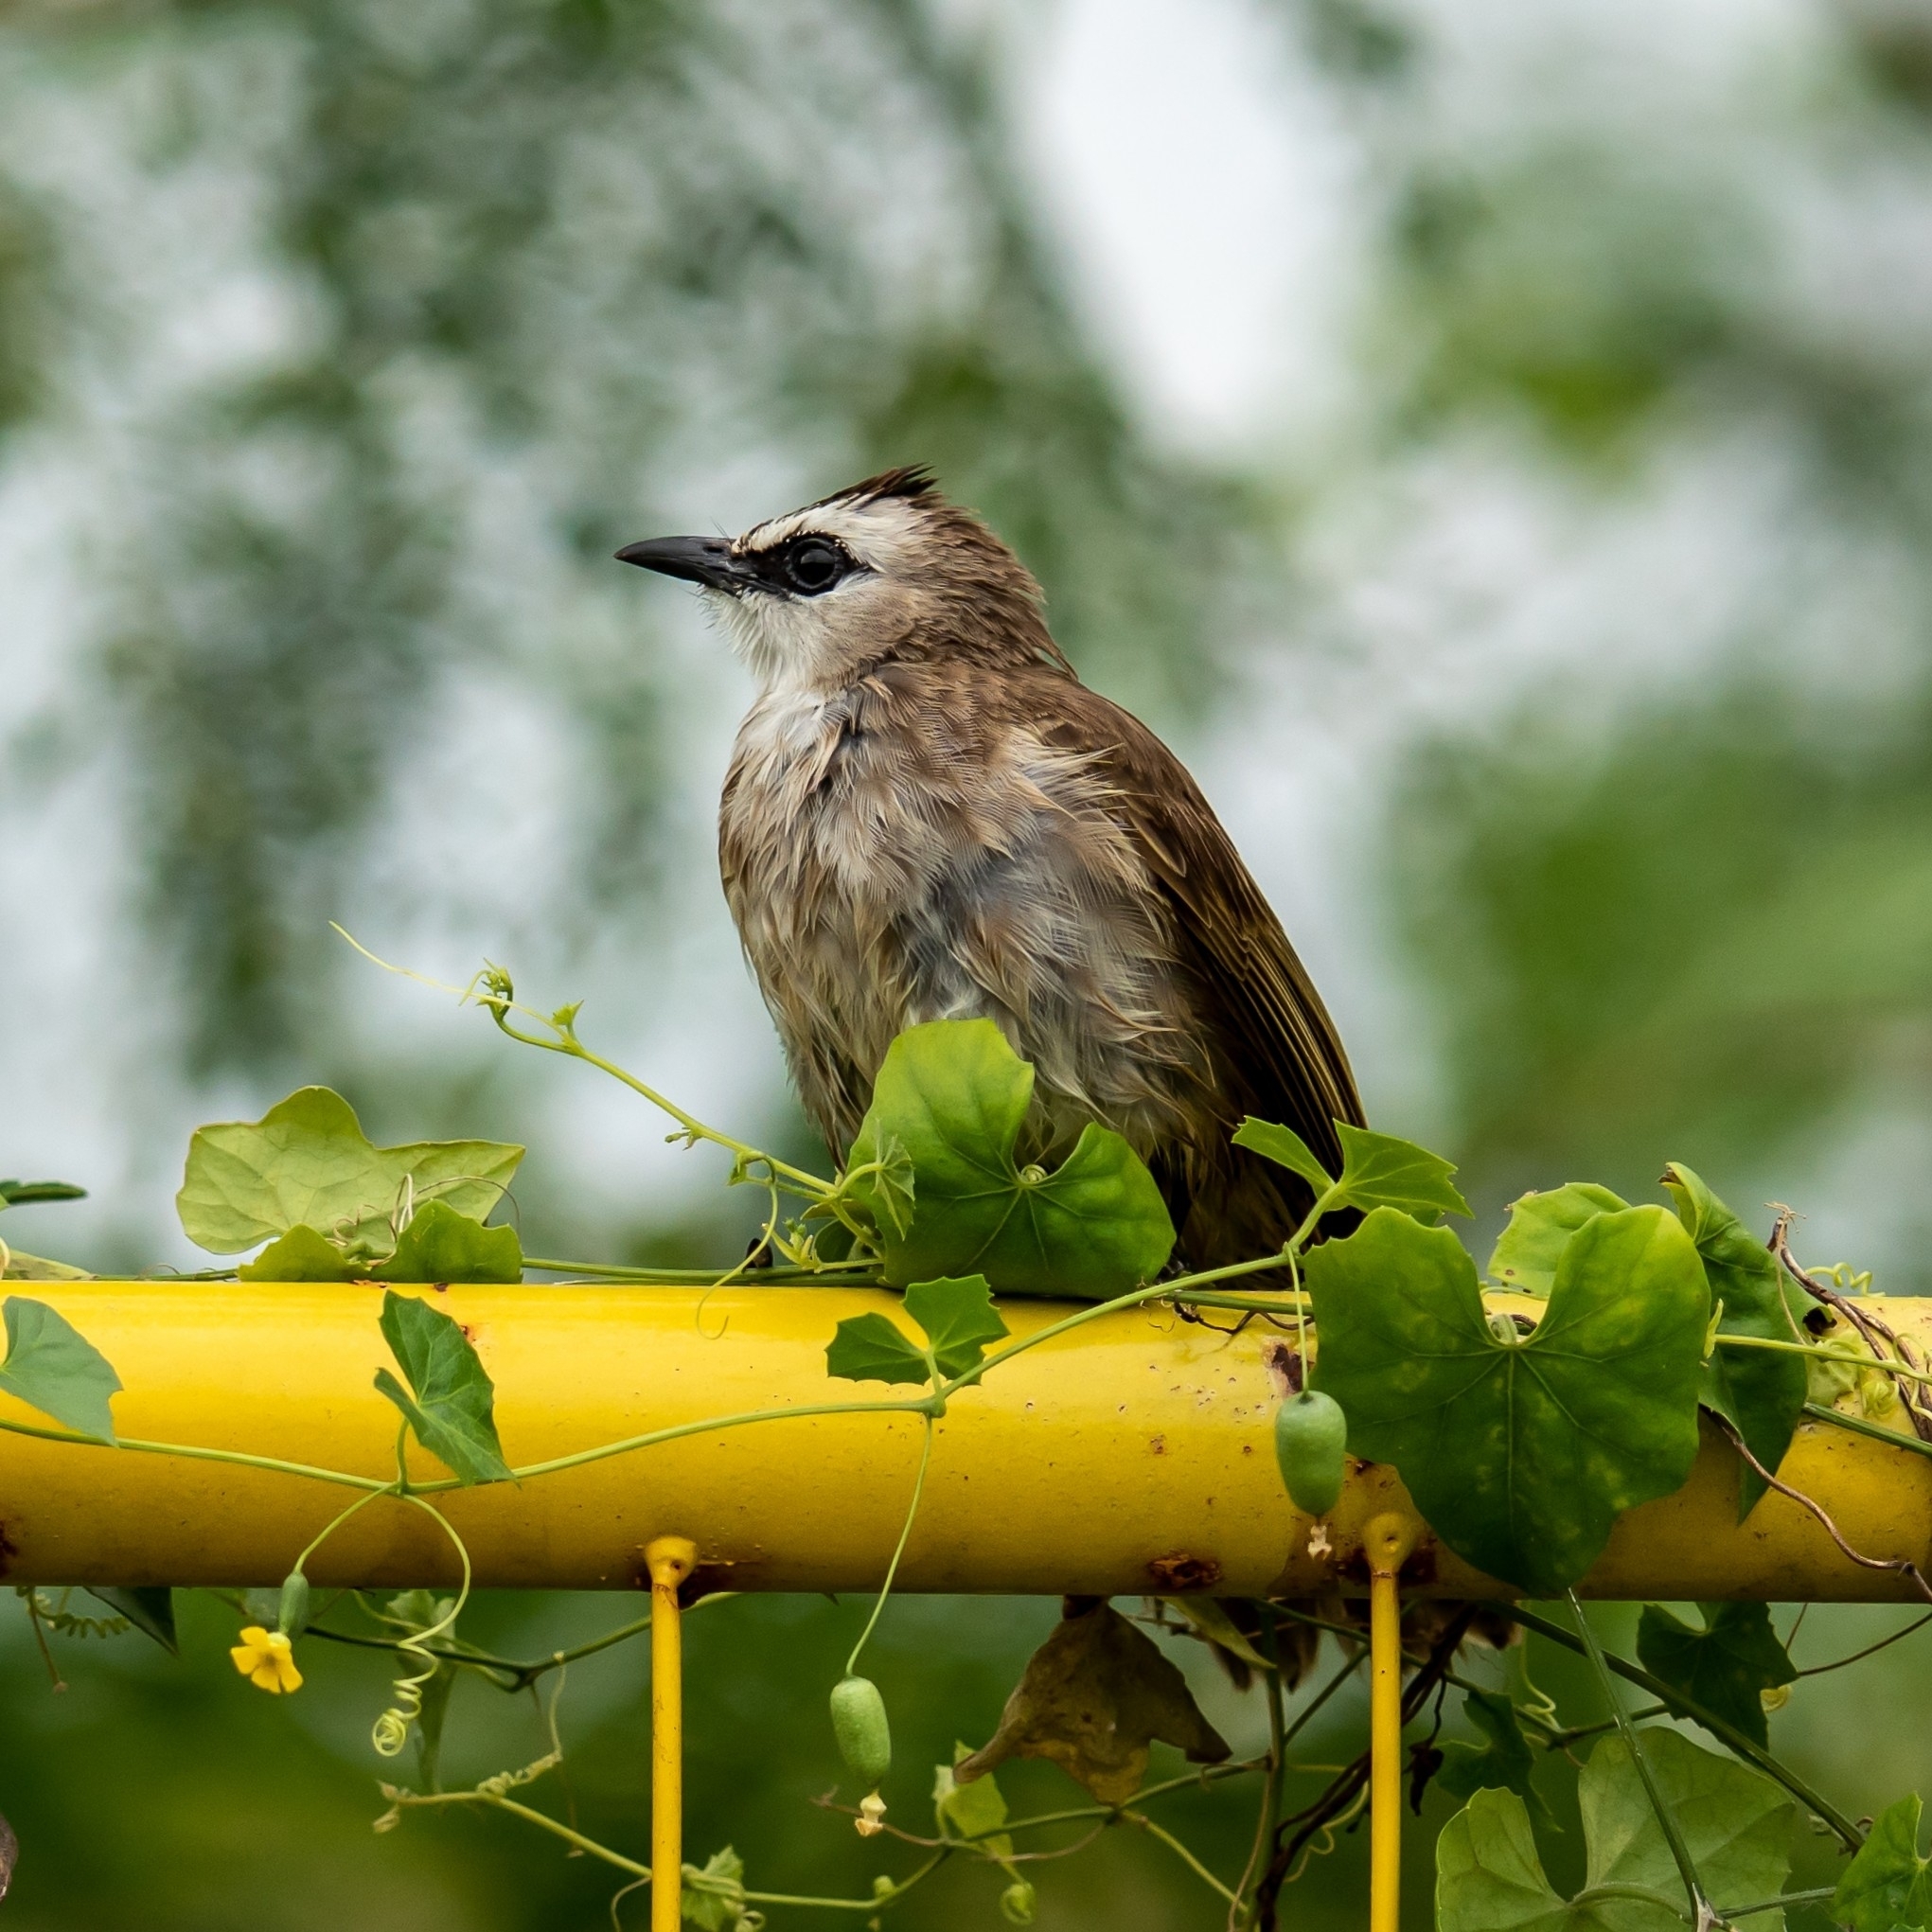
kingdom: Animalia
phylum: Chordata
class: Aves
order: Passeriformes
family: Pycnonotidae
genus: Pycnonotus
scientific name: Pycnonotus goiavier
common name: Yellow-vented bulbul
